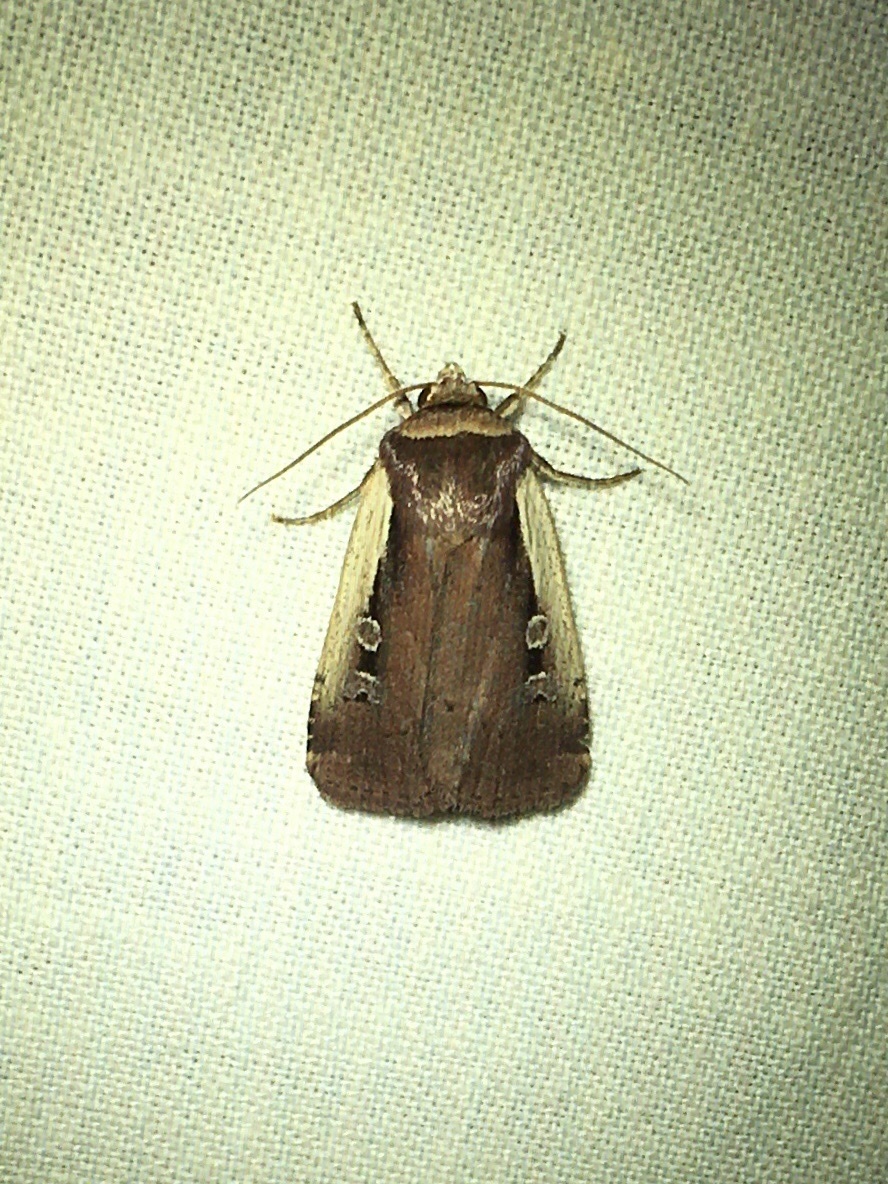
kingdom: Animalia
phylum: Arthropoda
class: Insecta
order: Lepidoptera
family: Noctuidae
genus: Ochropleura
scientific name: Ochropleura implecta
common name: Flame-shouldered dart
